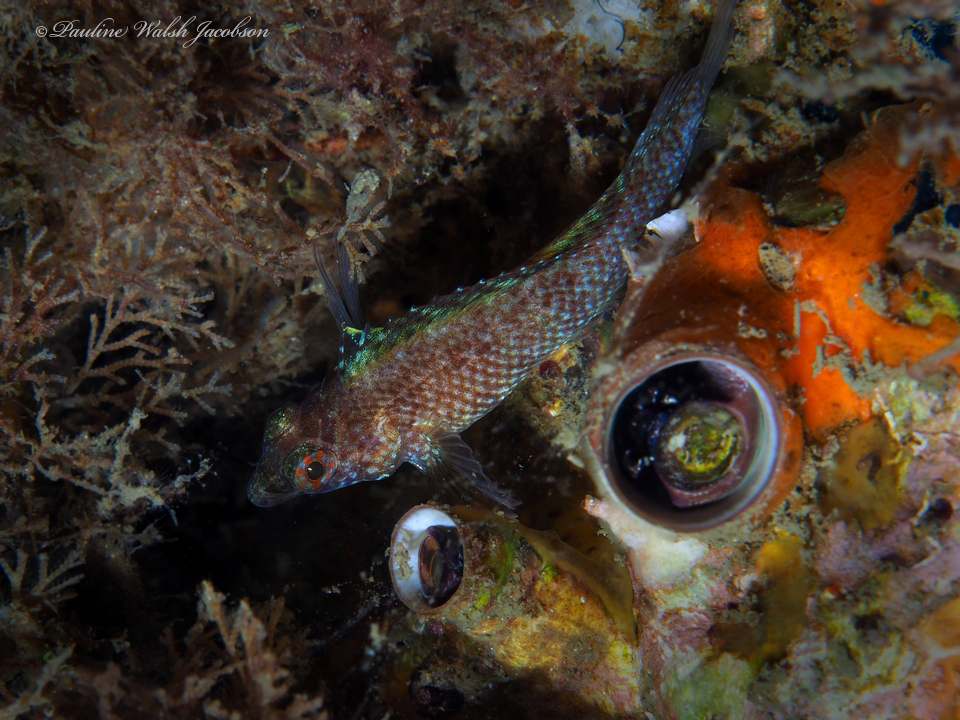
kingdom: Animalia
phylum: Chordata
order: Perciformes
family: Labrisomidae
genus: Malacoctenus
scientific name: Malacoctenus macropus
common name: Rosy blenny
